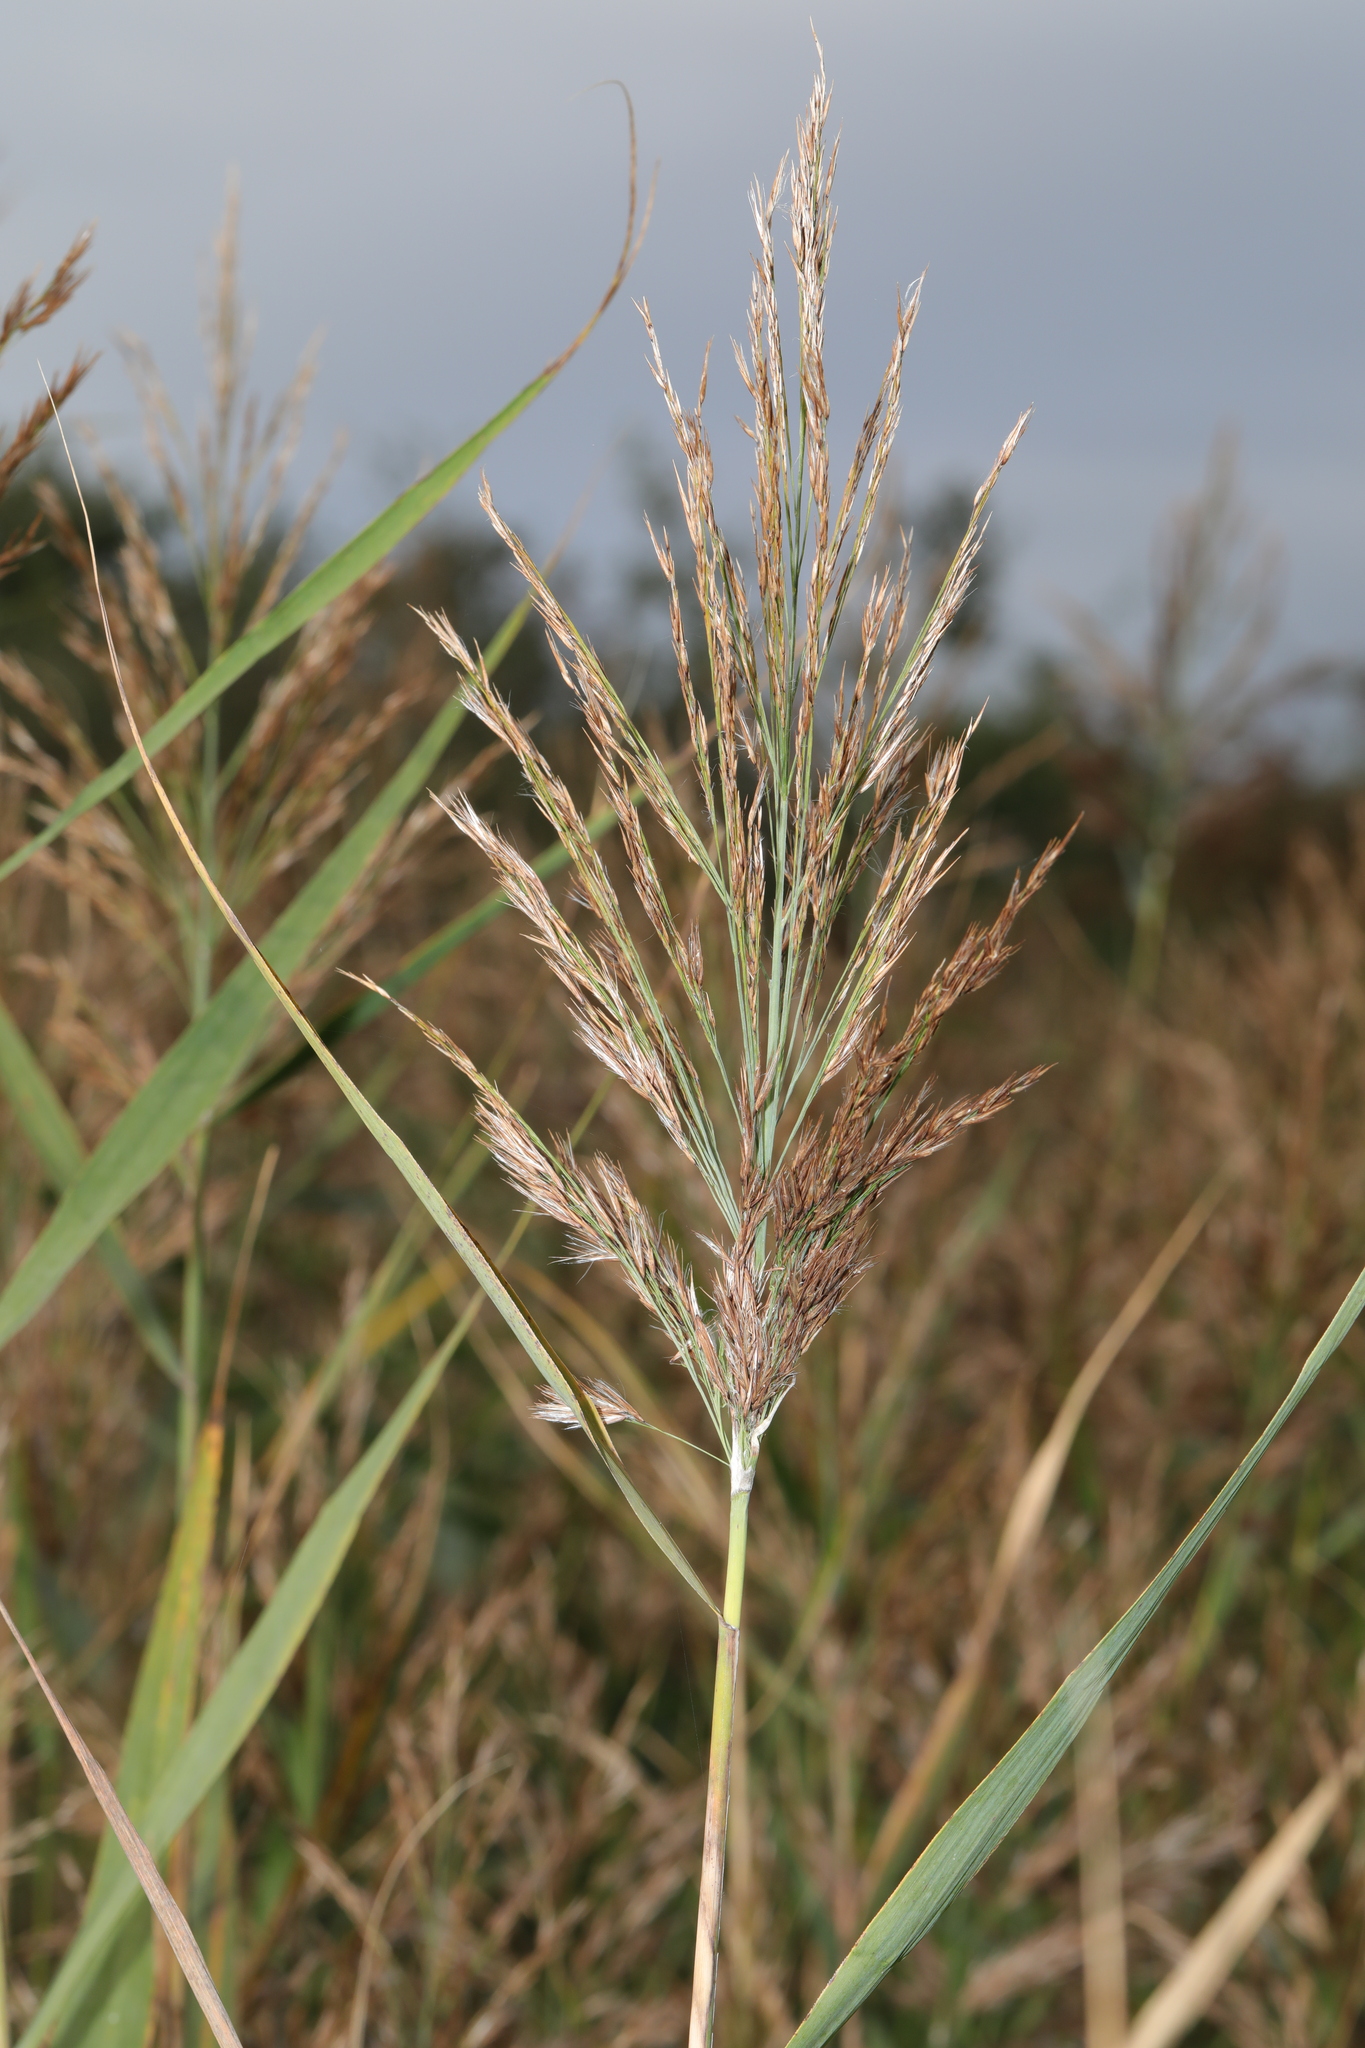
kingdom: Plantae
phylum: Tracheophyta
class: Liliopsida
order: Poales
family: Poaceae
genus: Phragmites
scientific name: Phragmites australis
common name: Common reed
